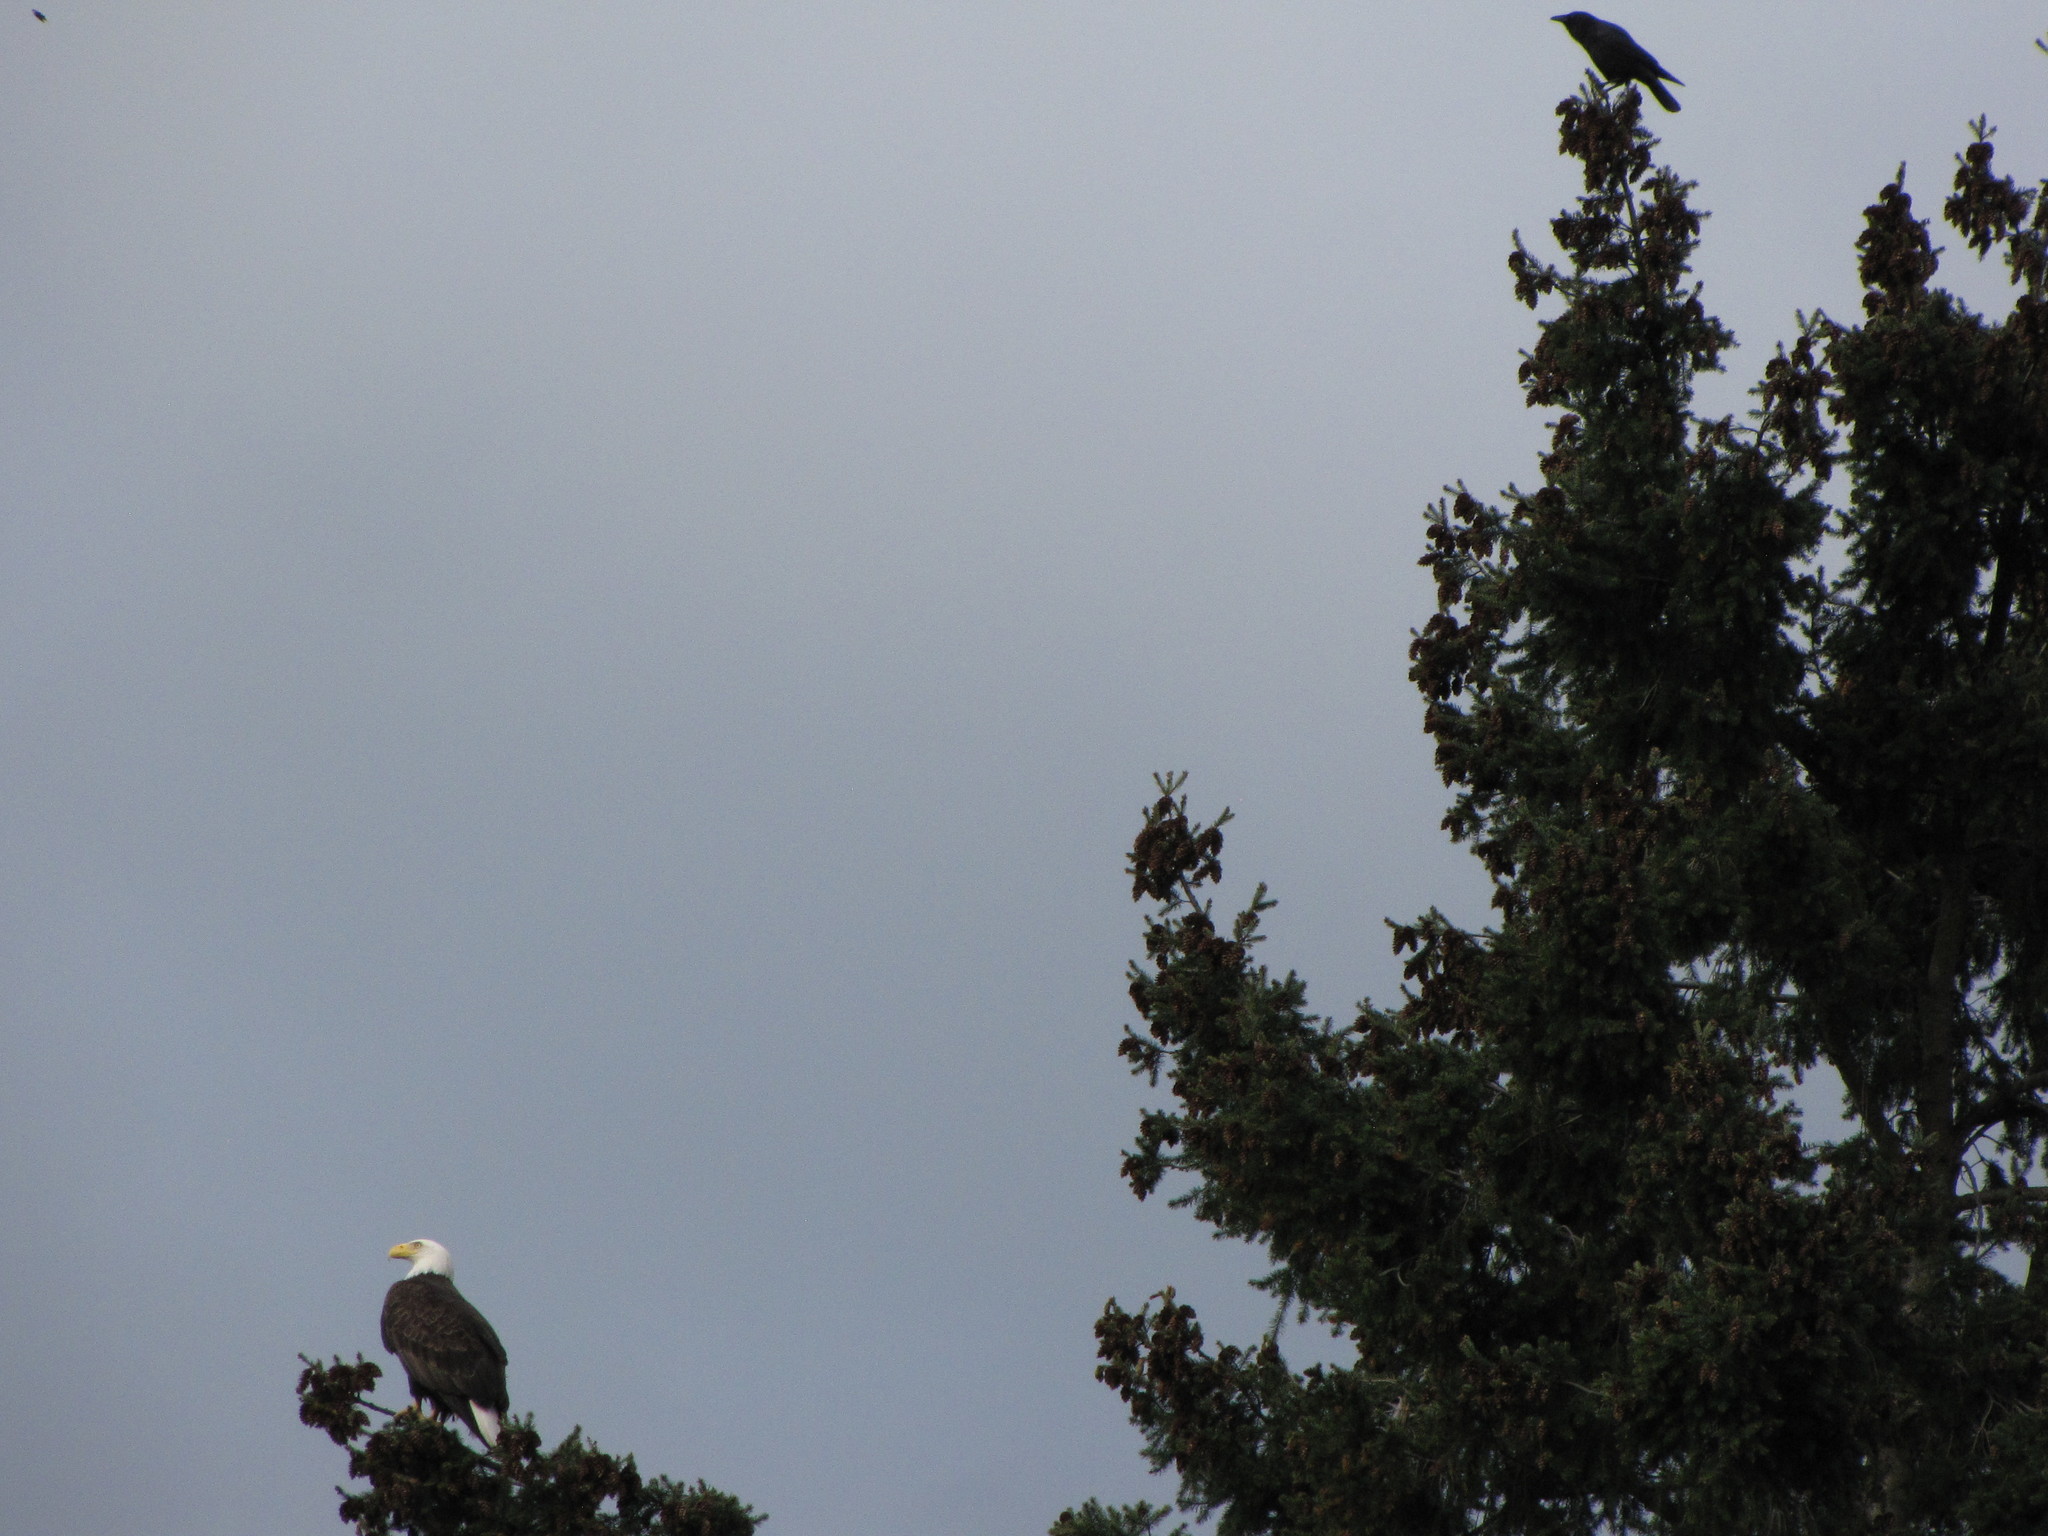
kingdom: Animalia
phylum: Chordata
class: Aves
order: Accipitriformes
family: Accipitridae
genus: Haliaeetus
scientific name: Haliaeetus leucocephalus
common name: Bald eagle
